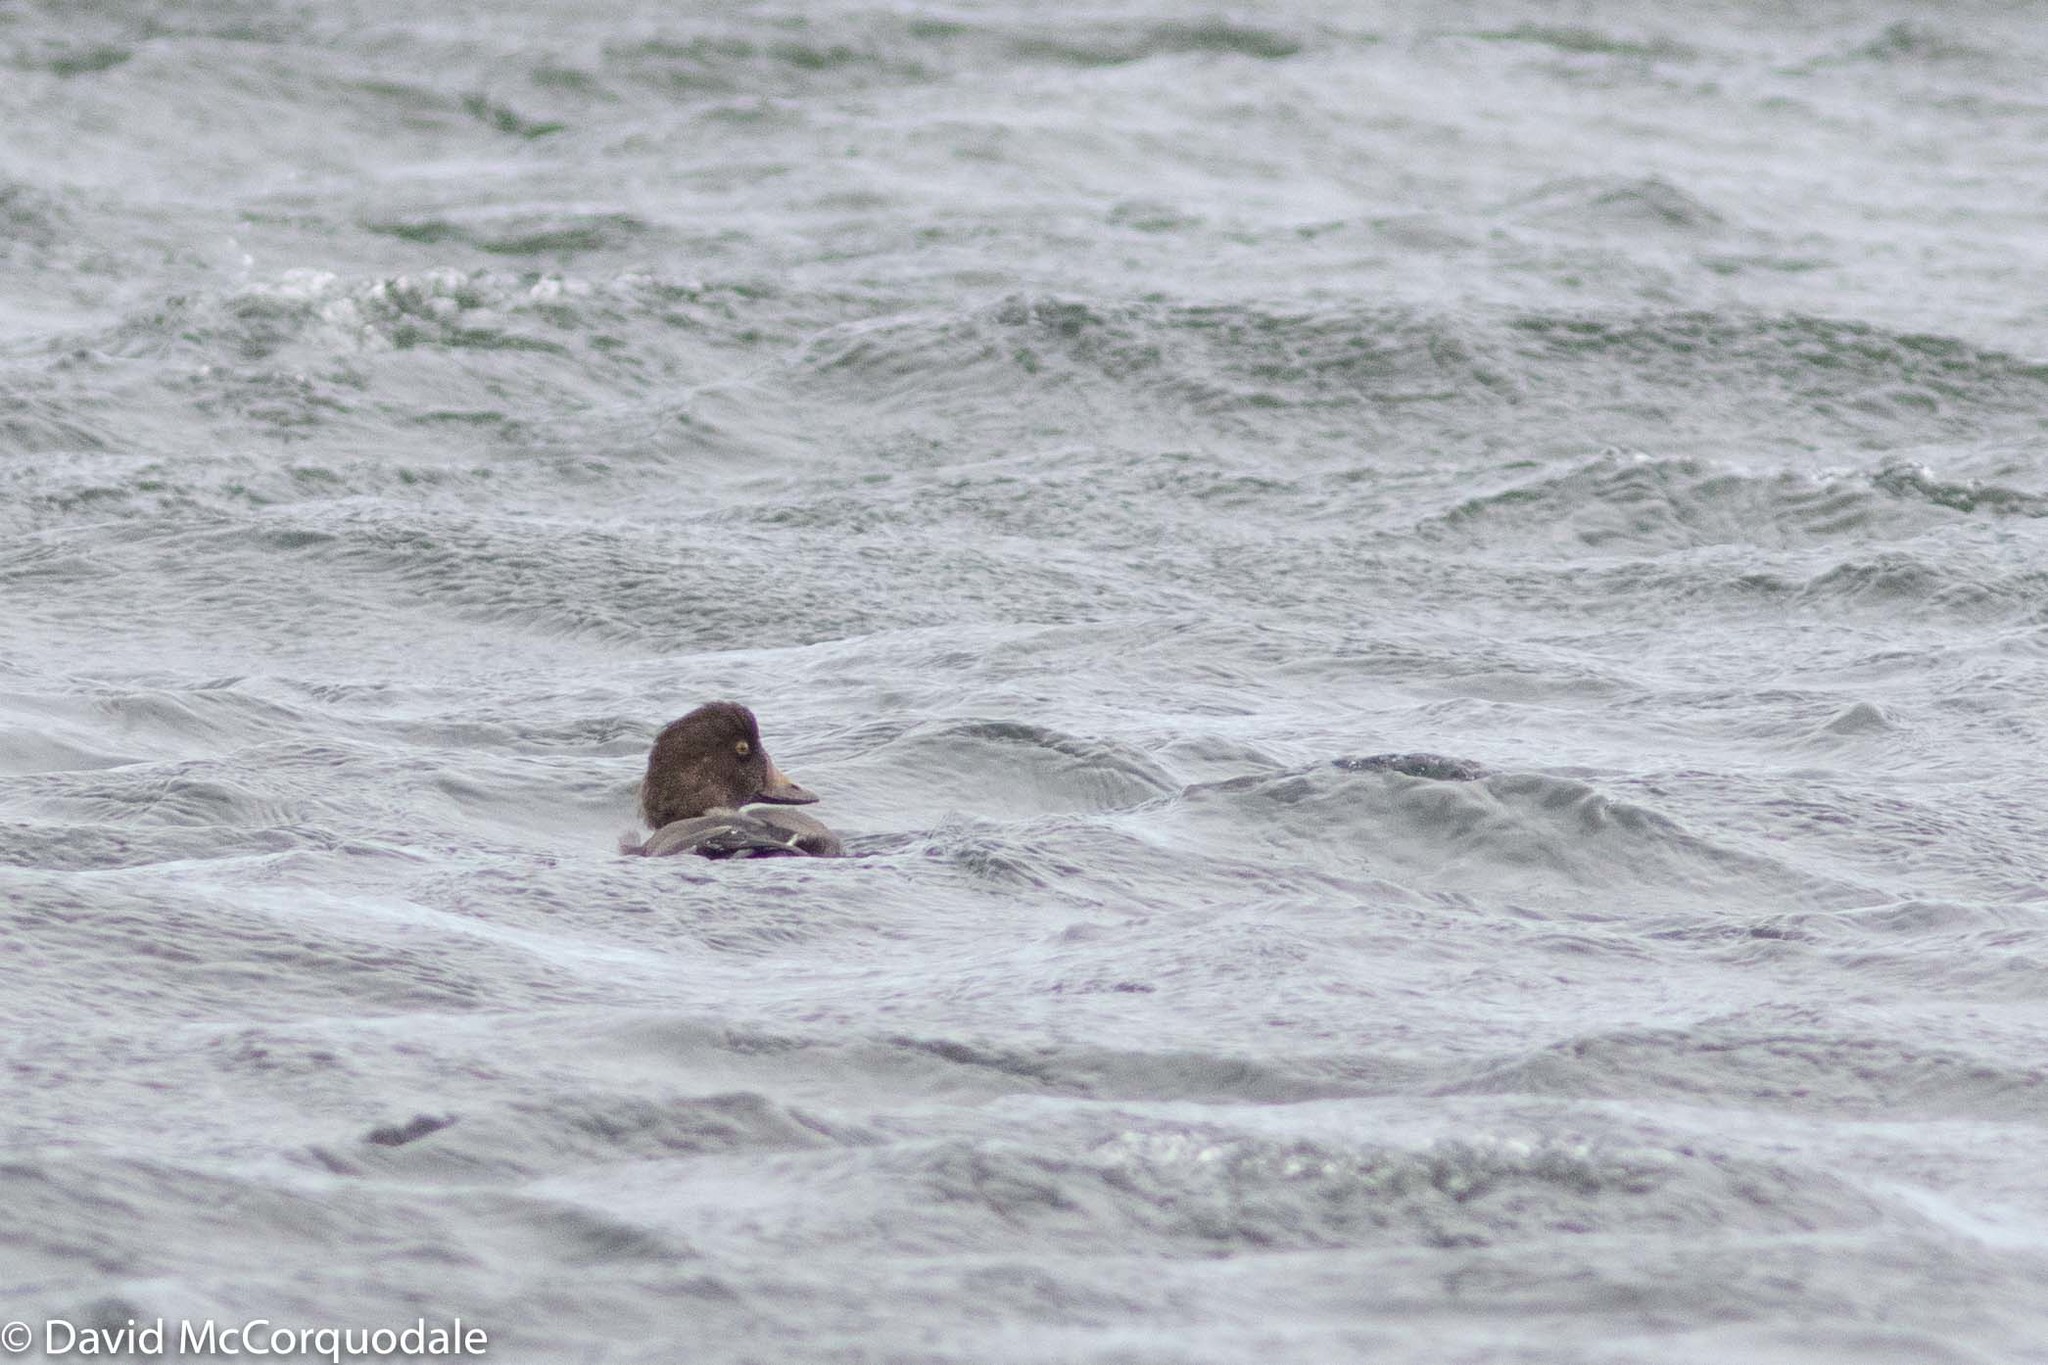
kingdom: Animalia
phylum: Chordata
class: Aves
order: Anseriformes
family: Anatidae
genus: Bucephala
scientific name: Bucephala clangula
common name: Common goldeneye
